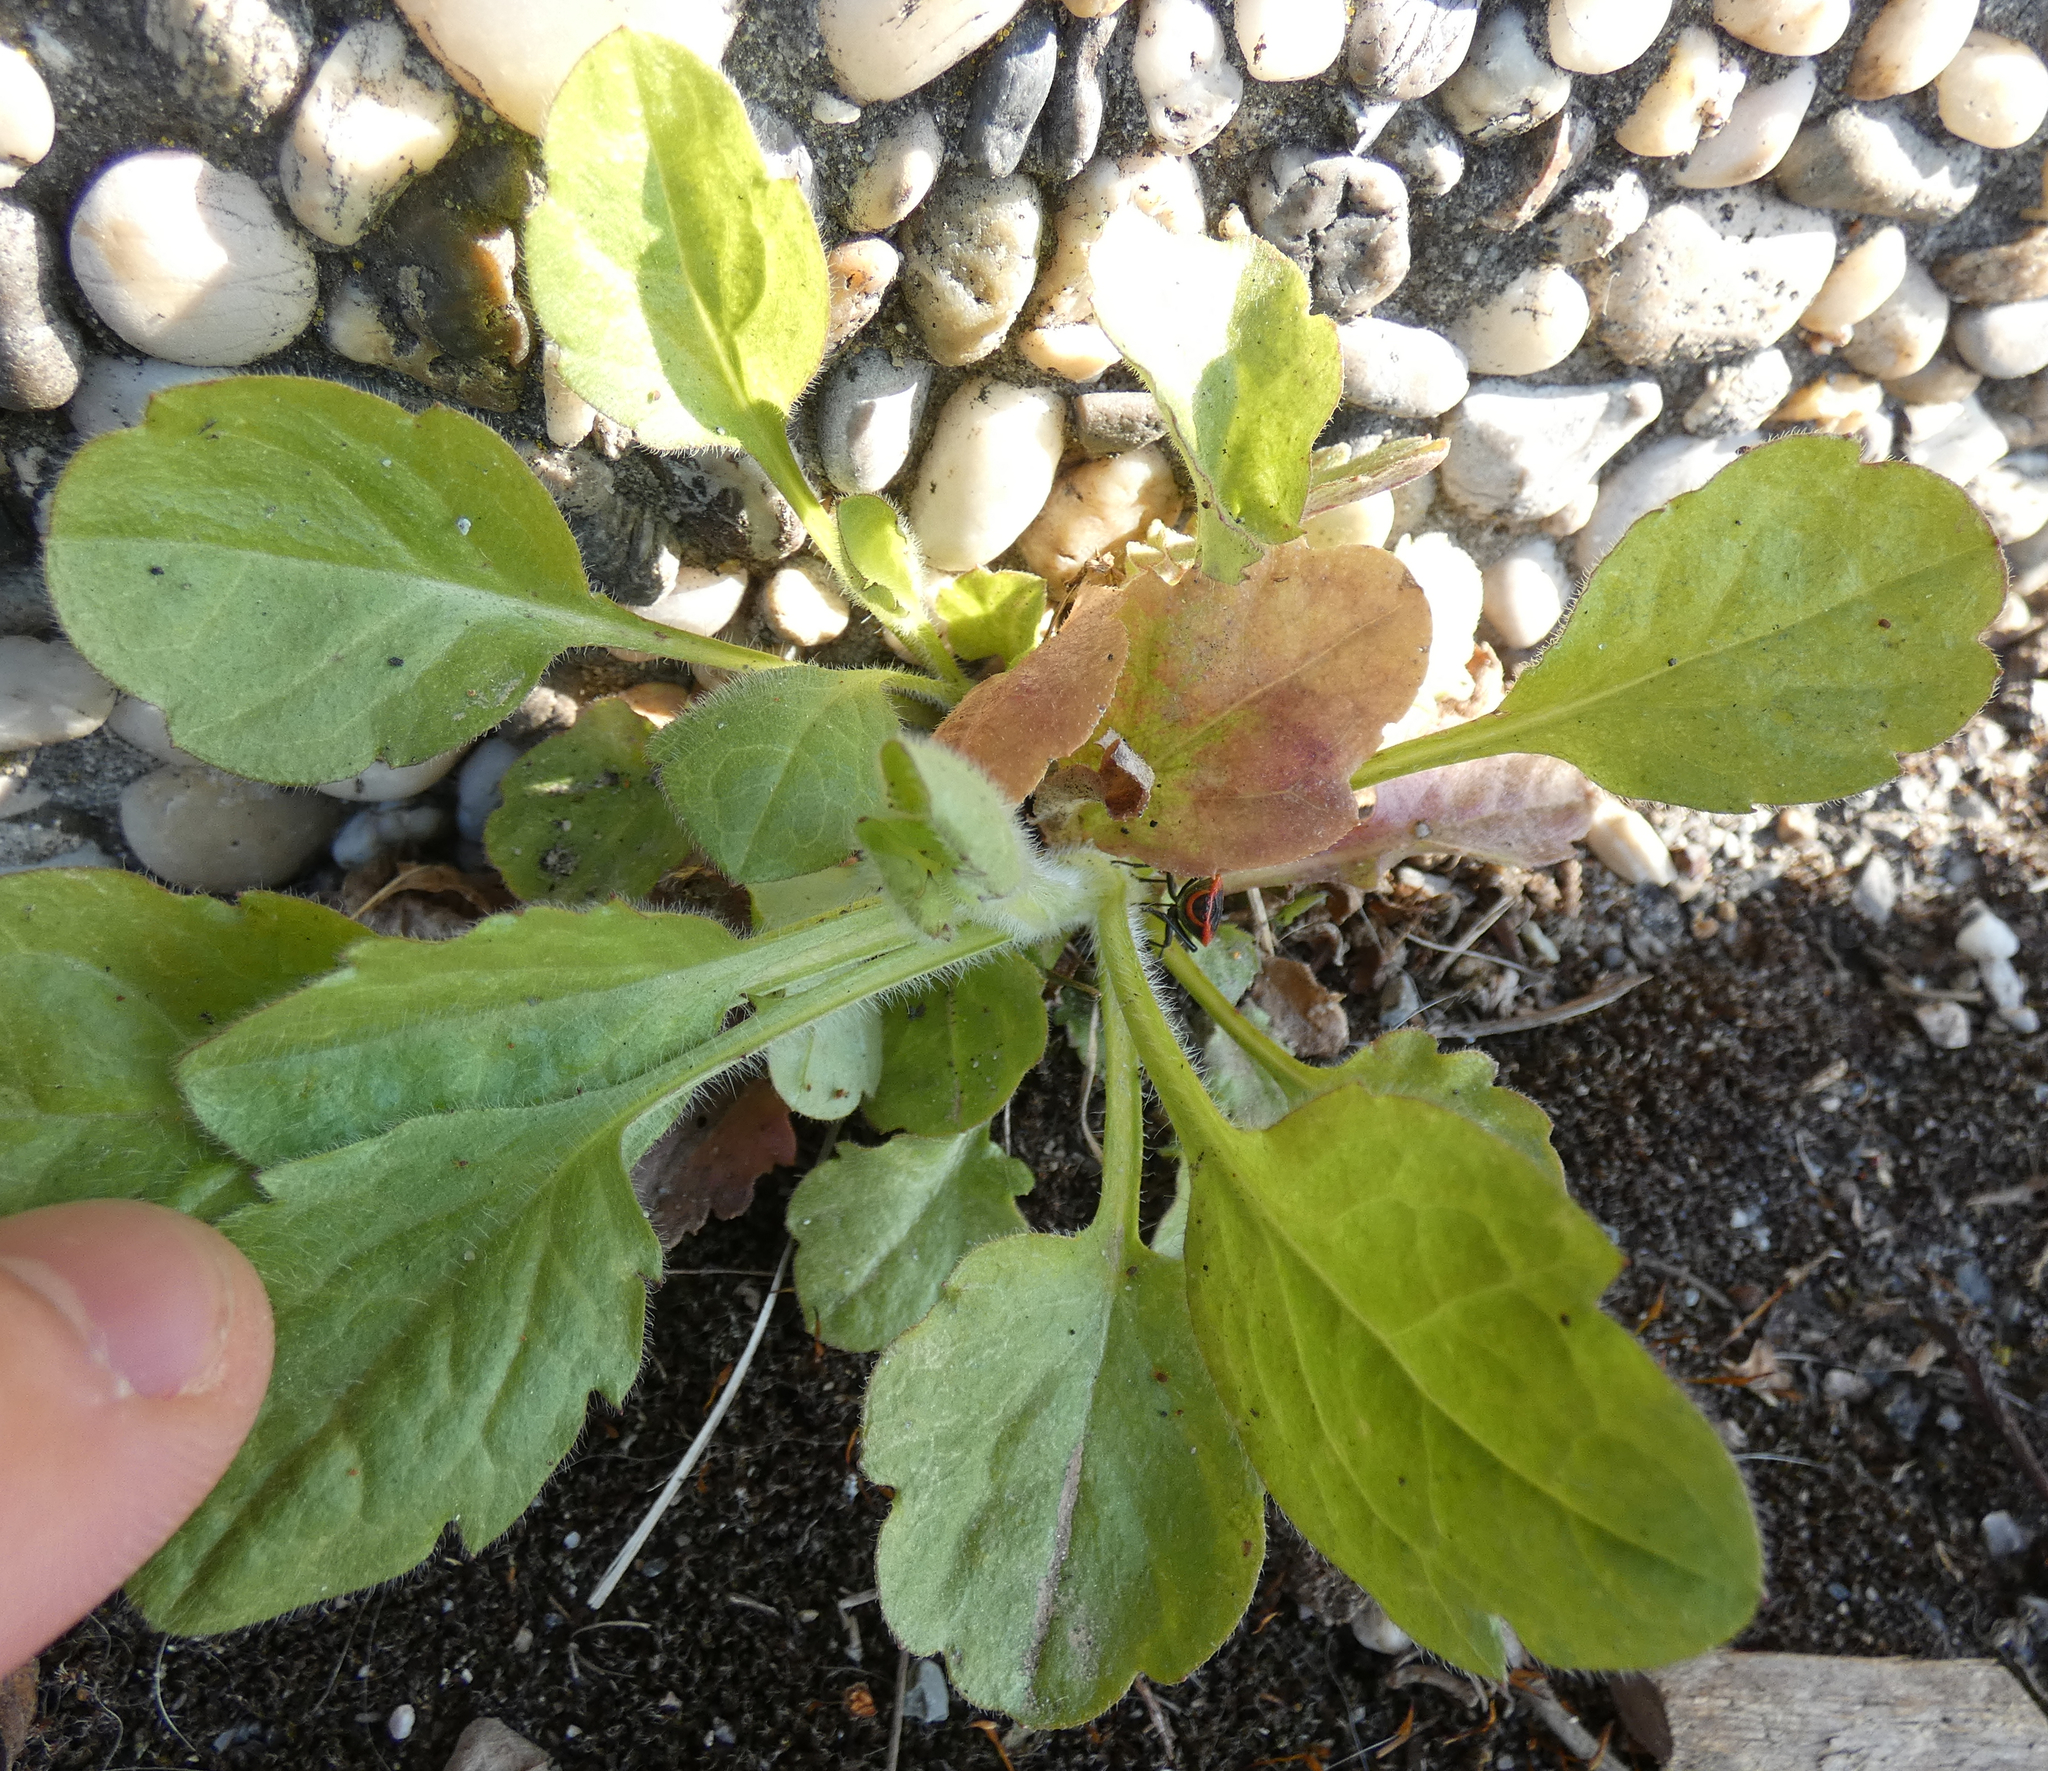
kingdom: Plantae
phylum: Tracheophyta
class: Magnoliopsida
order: Asterales
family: Asteraceae
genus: Erigeron
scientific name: Erigeron annuus
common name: Tall fleabane
